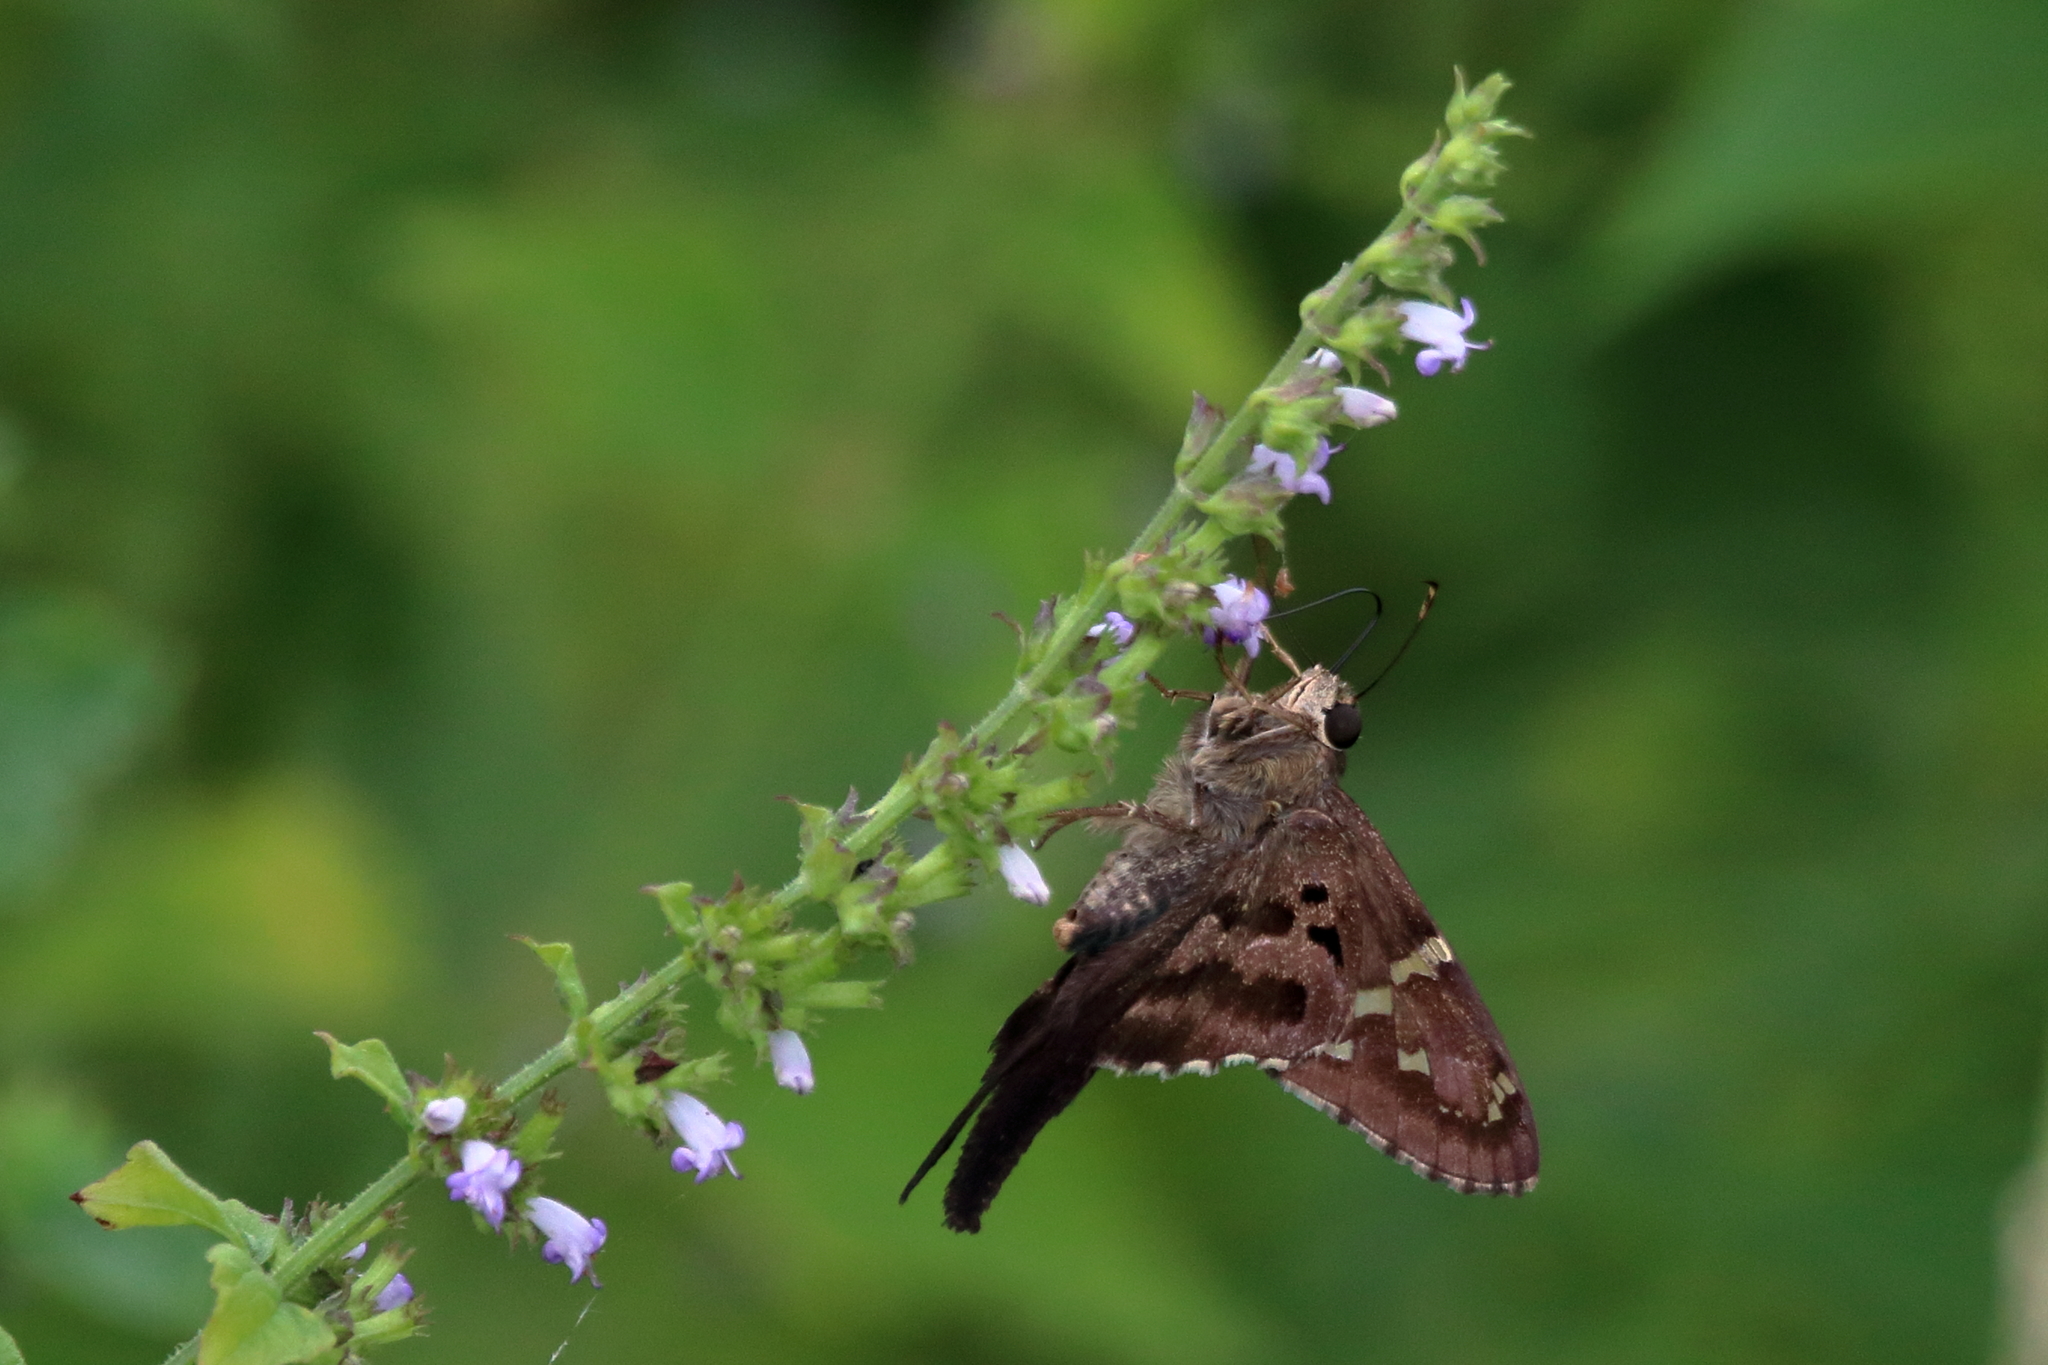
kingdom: Animalia
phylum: Arthropoda
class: Insecta
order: Lepidoptera
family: Hesperiidae
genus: Urbanus
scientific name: Urbanus proteus
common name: Long-tailed skipper
